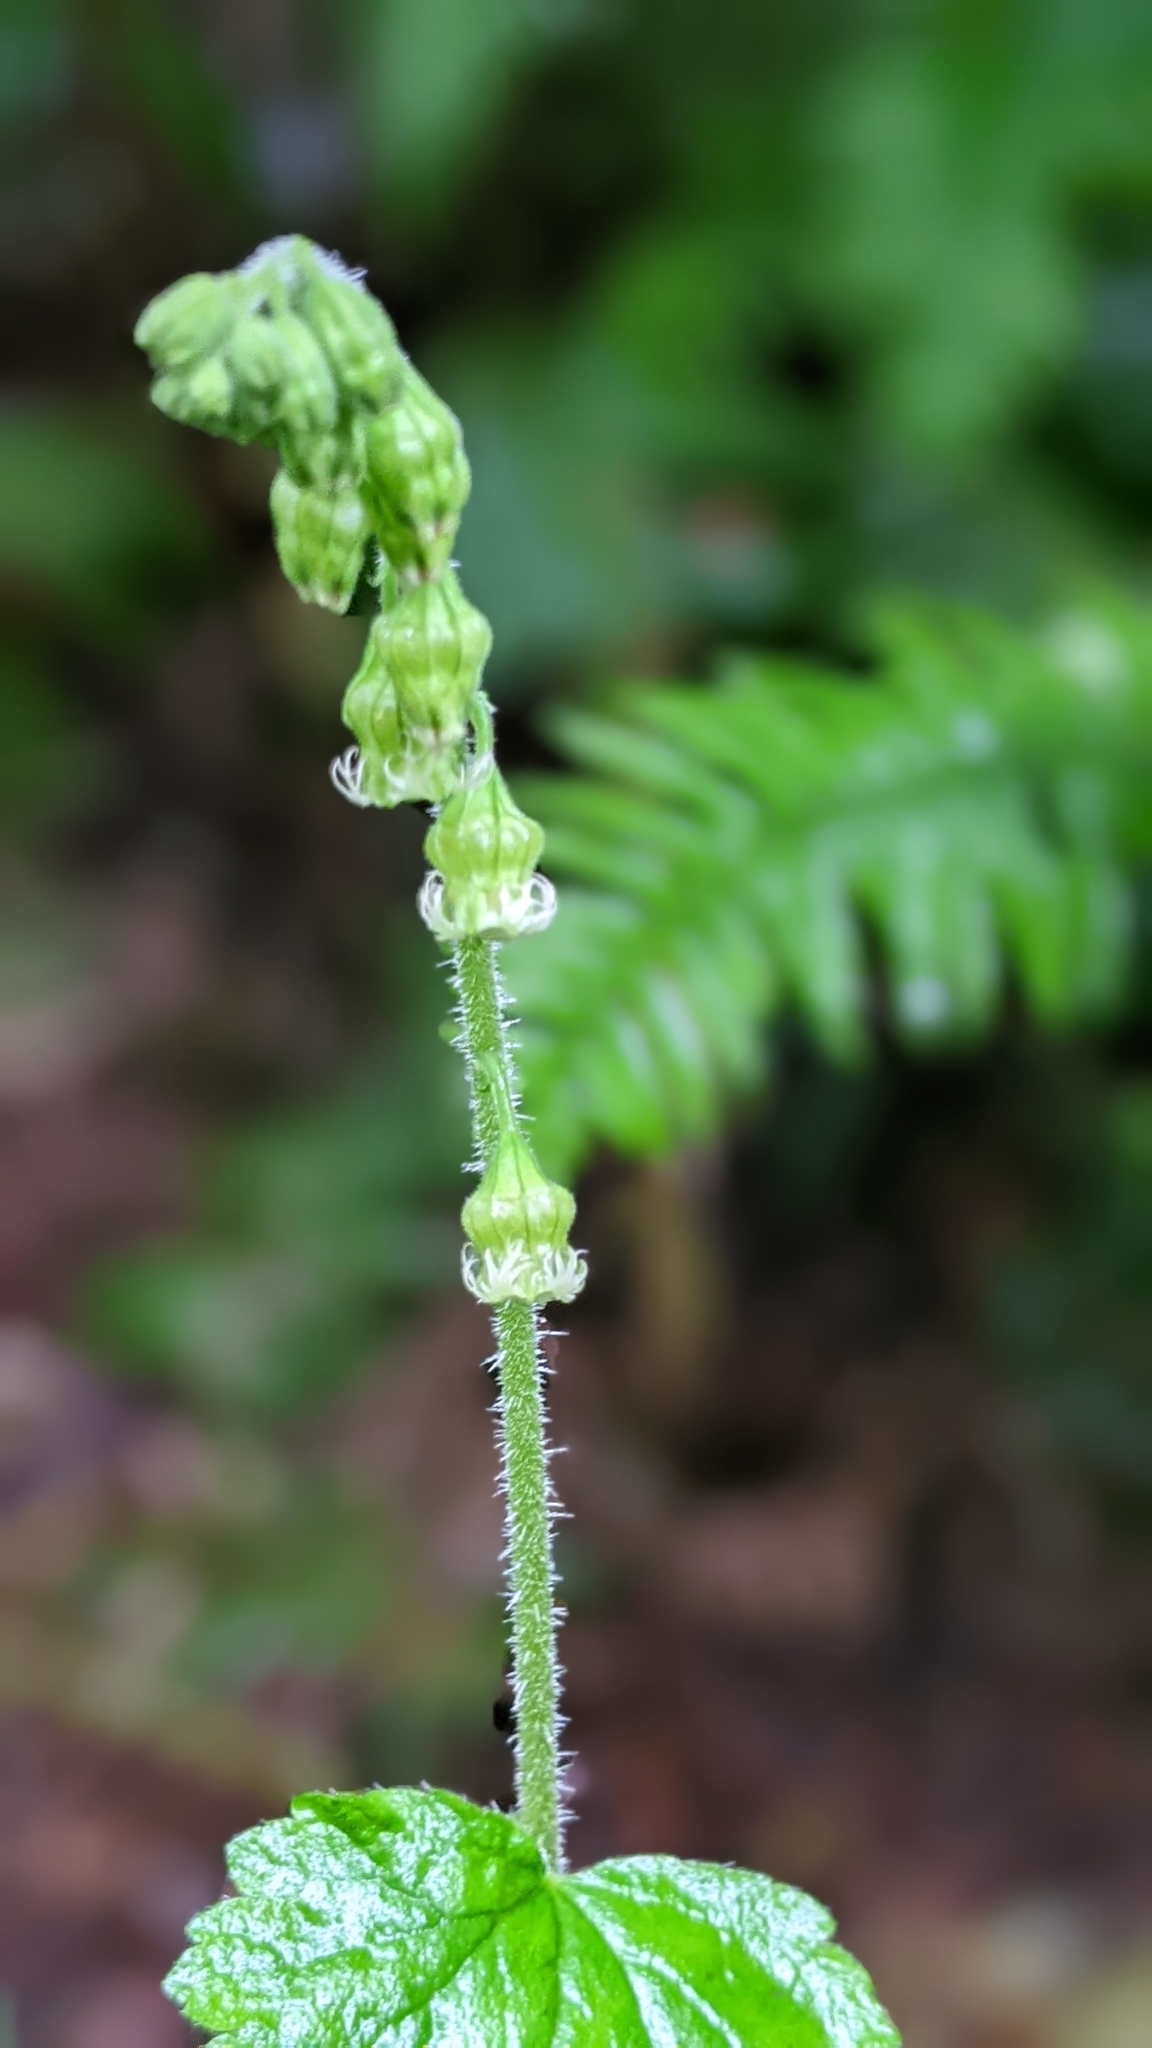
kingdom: Plantae
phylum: Tracheophyta
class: Magnoliopsida
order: Saxifragales
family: Saxifragaceae
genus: Tellima
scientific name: Tellima grandiflora
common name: Fringecups
